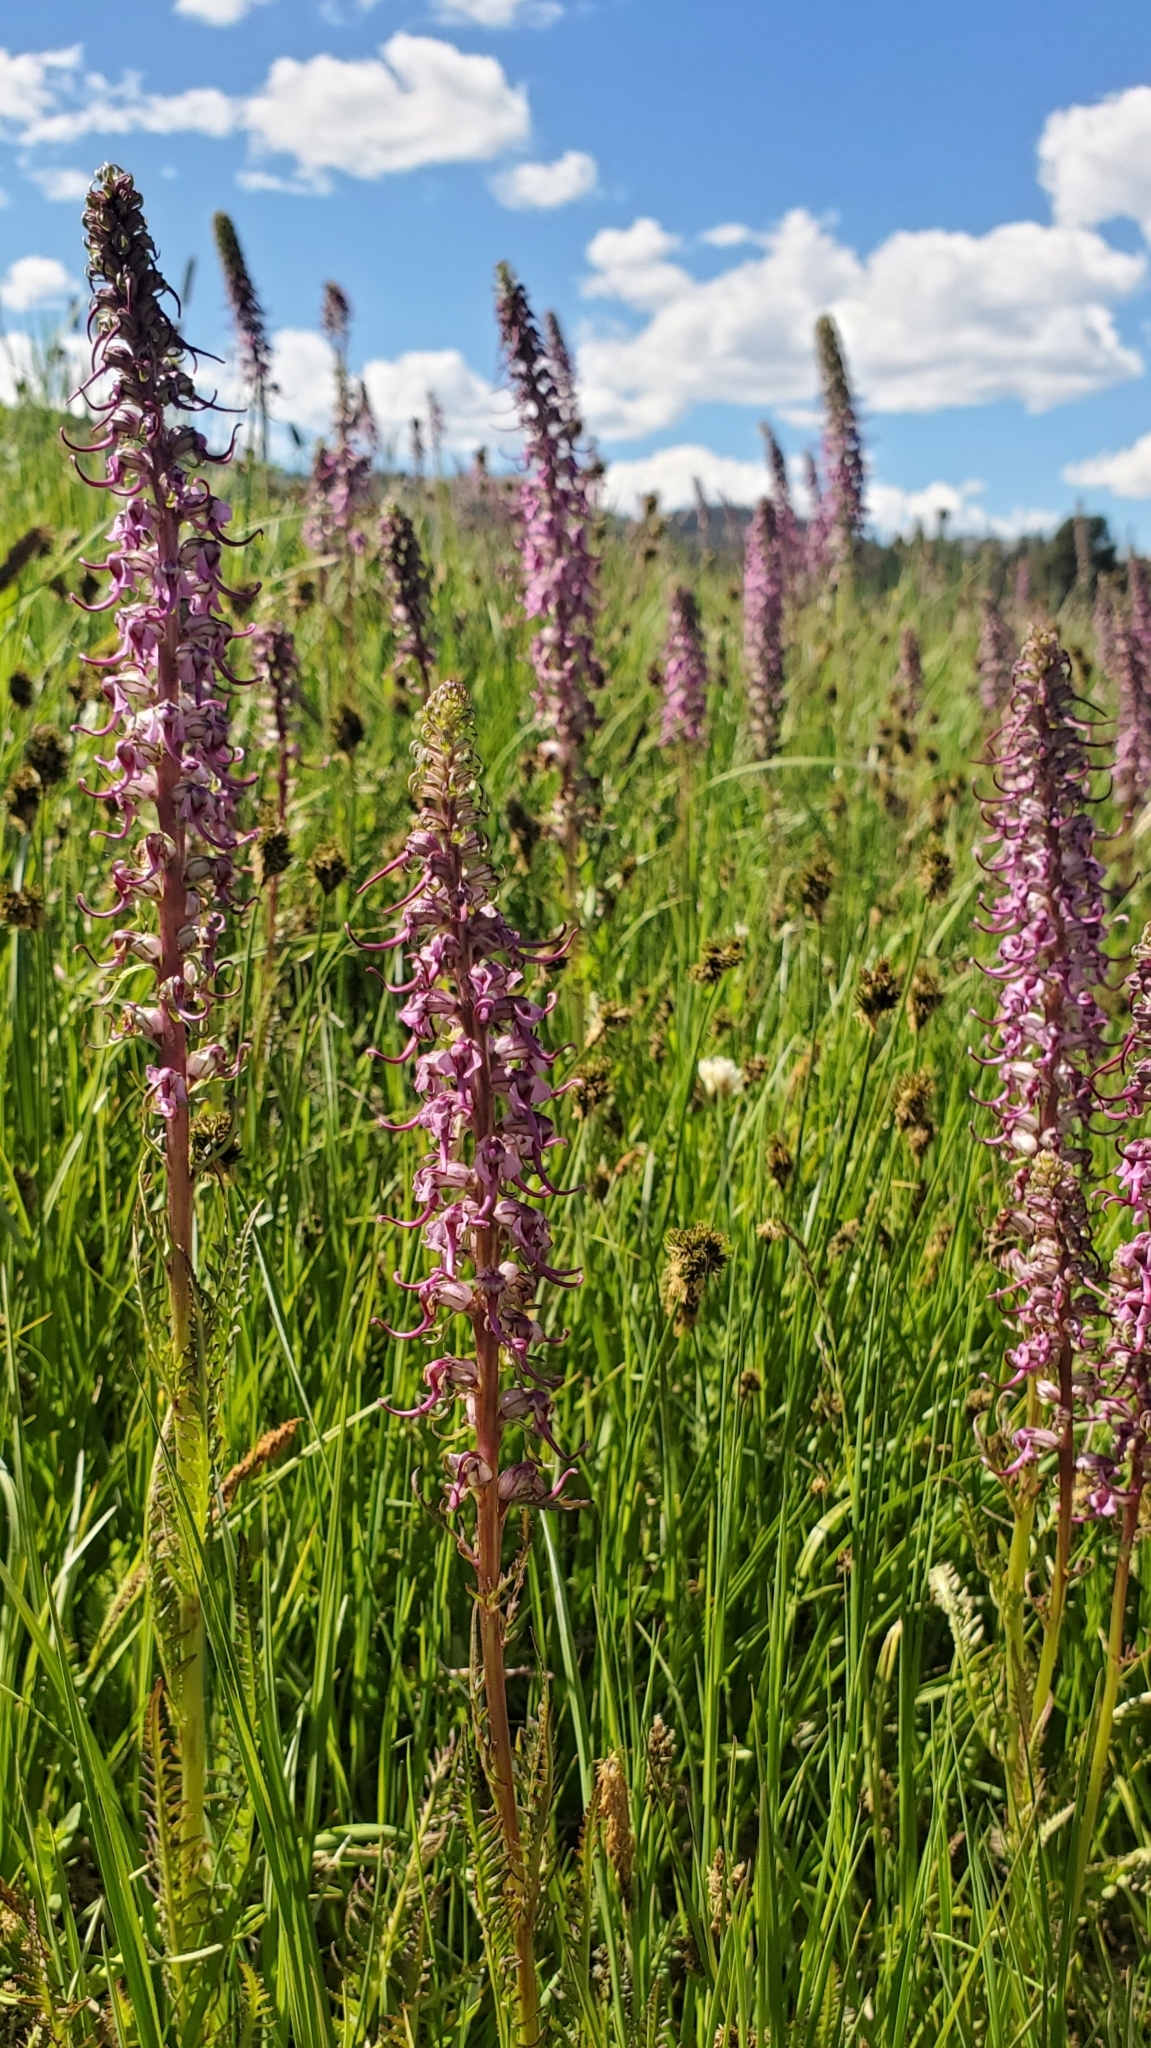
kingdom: Plantae
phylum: Tracheophyta
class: Magnoliopsida
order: Lamiales
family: Orobanchaceae
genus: Pedicularis
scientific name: Pedicularis groenlandica
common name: Elephant's-head
